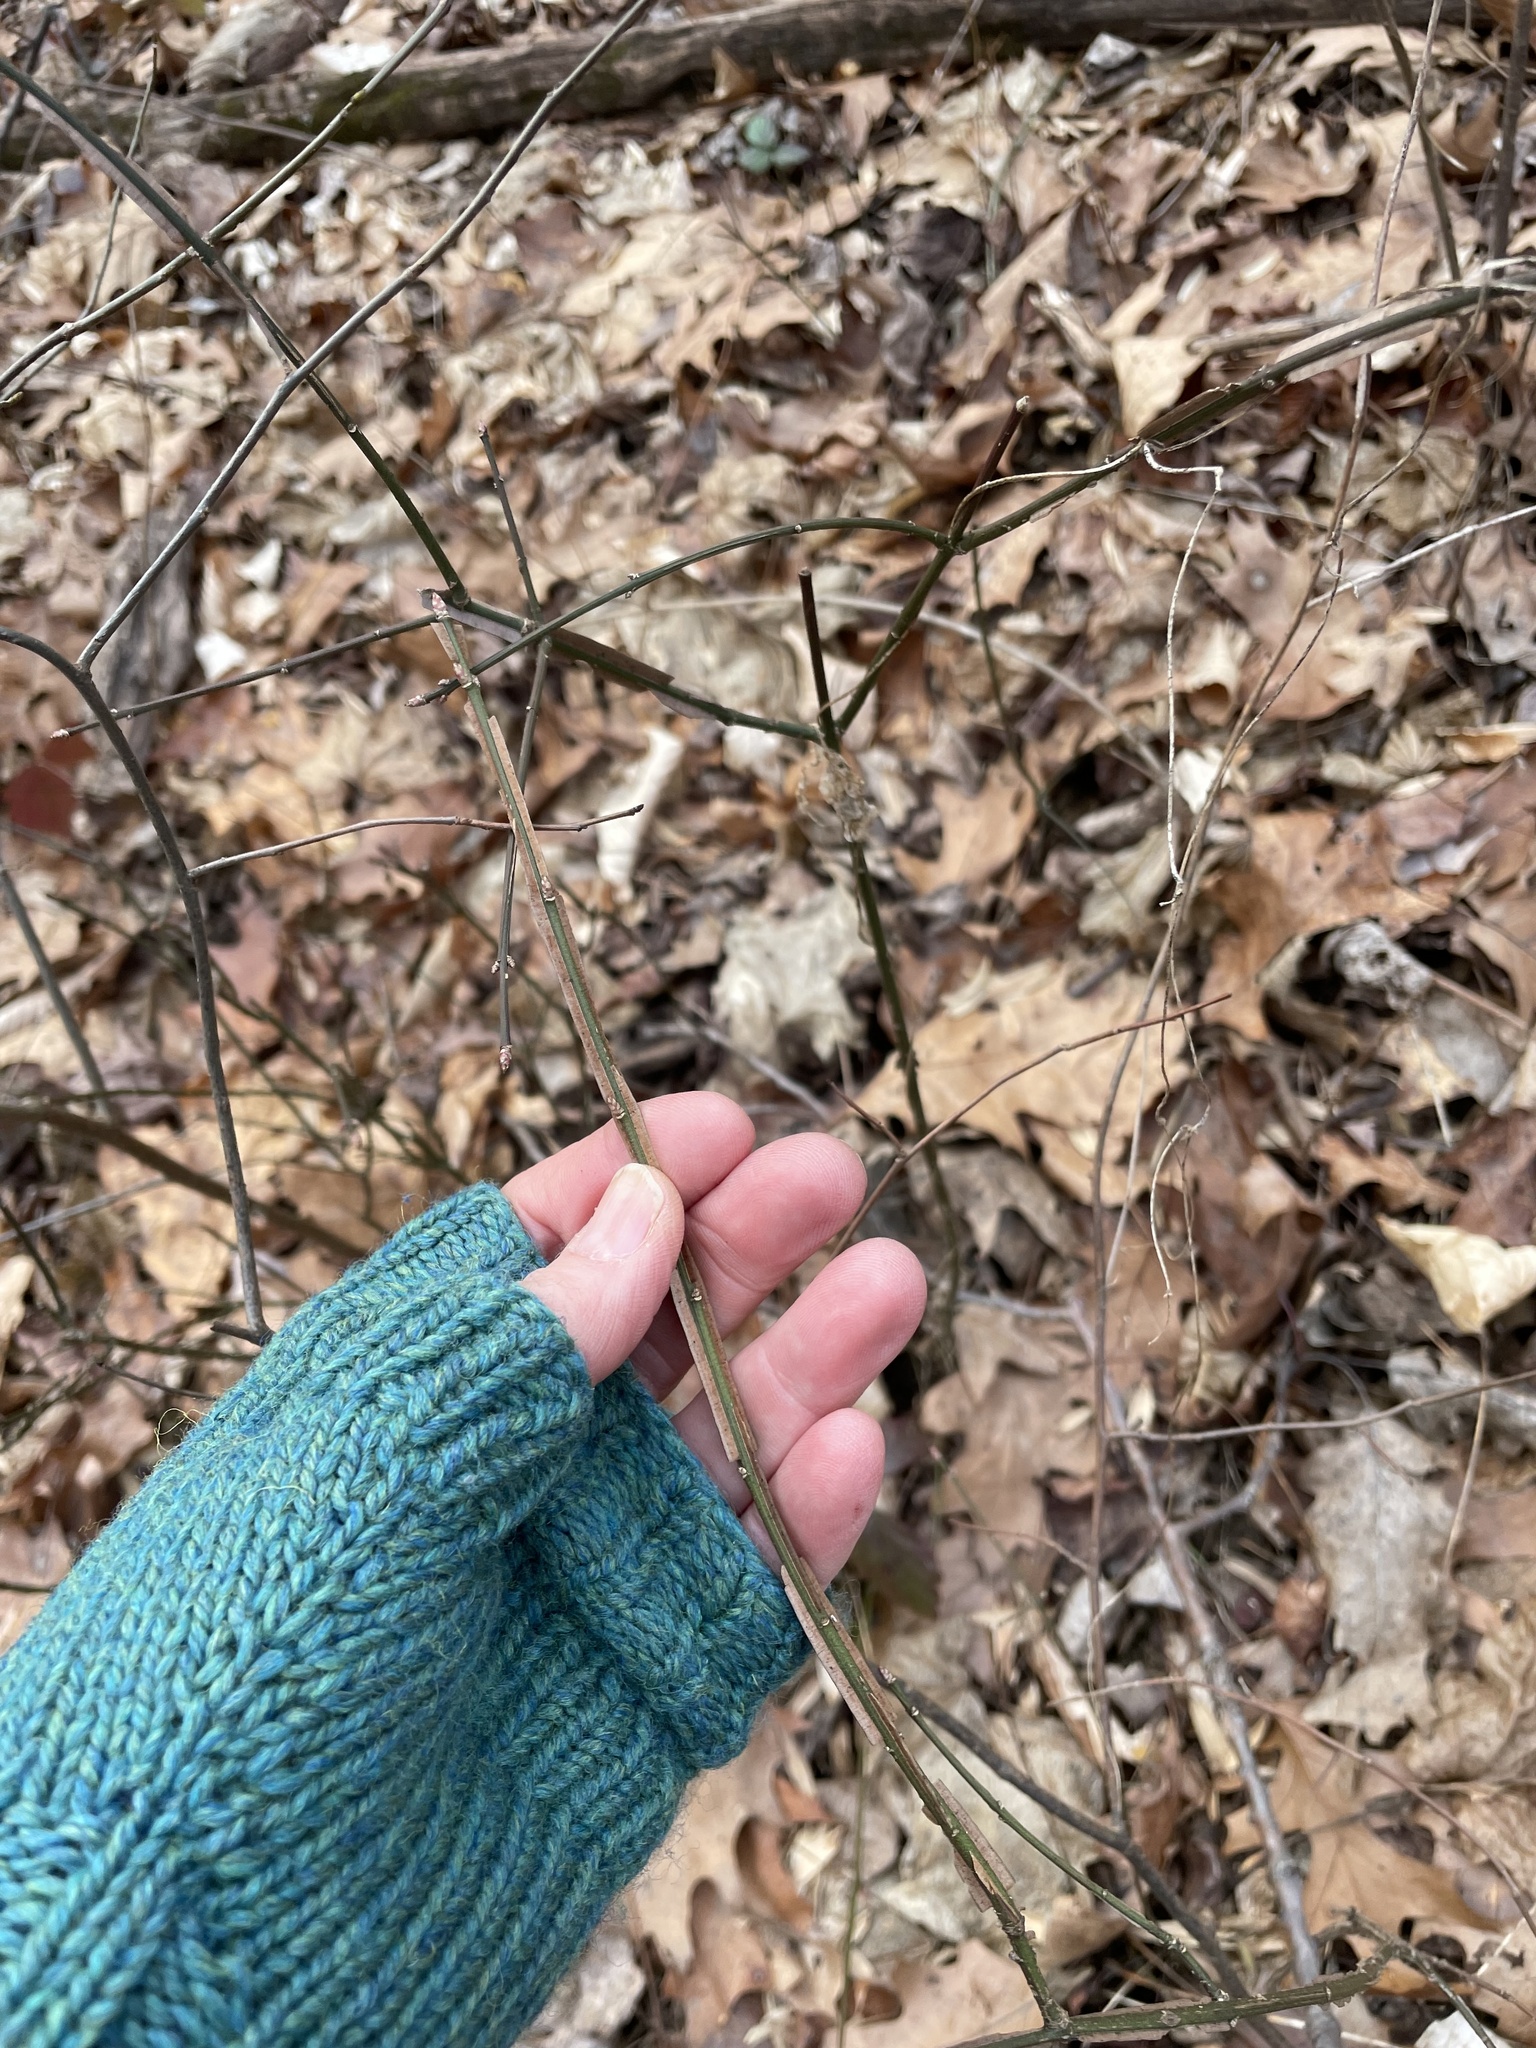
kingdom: Plantae
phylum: Tracheophyta
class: Magnoliopsida
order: Celastrales
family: Celastraceae
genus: Euonymus
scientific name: Euonymus alatus
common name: Winged euonymus
